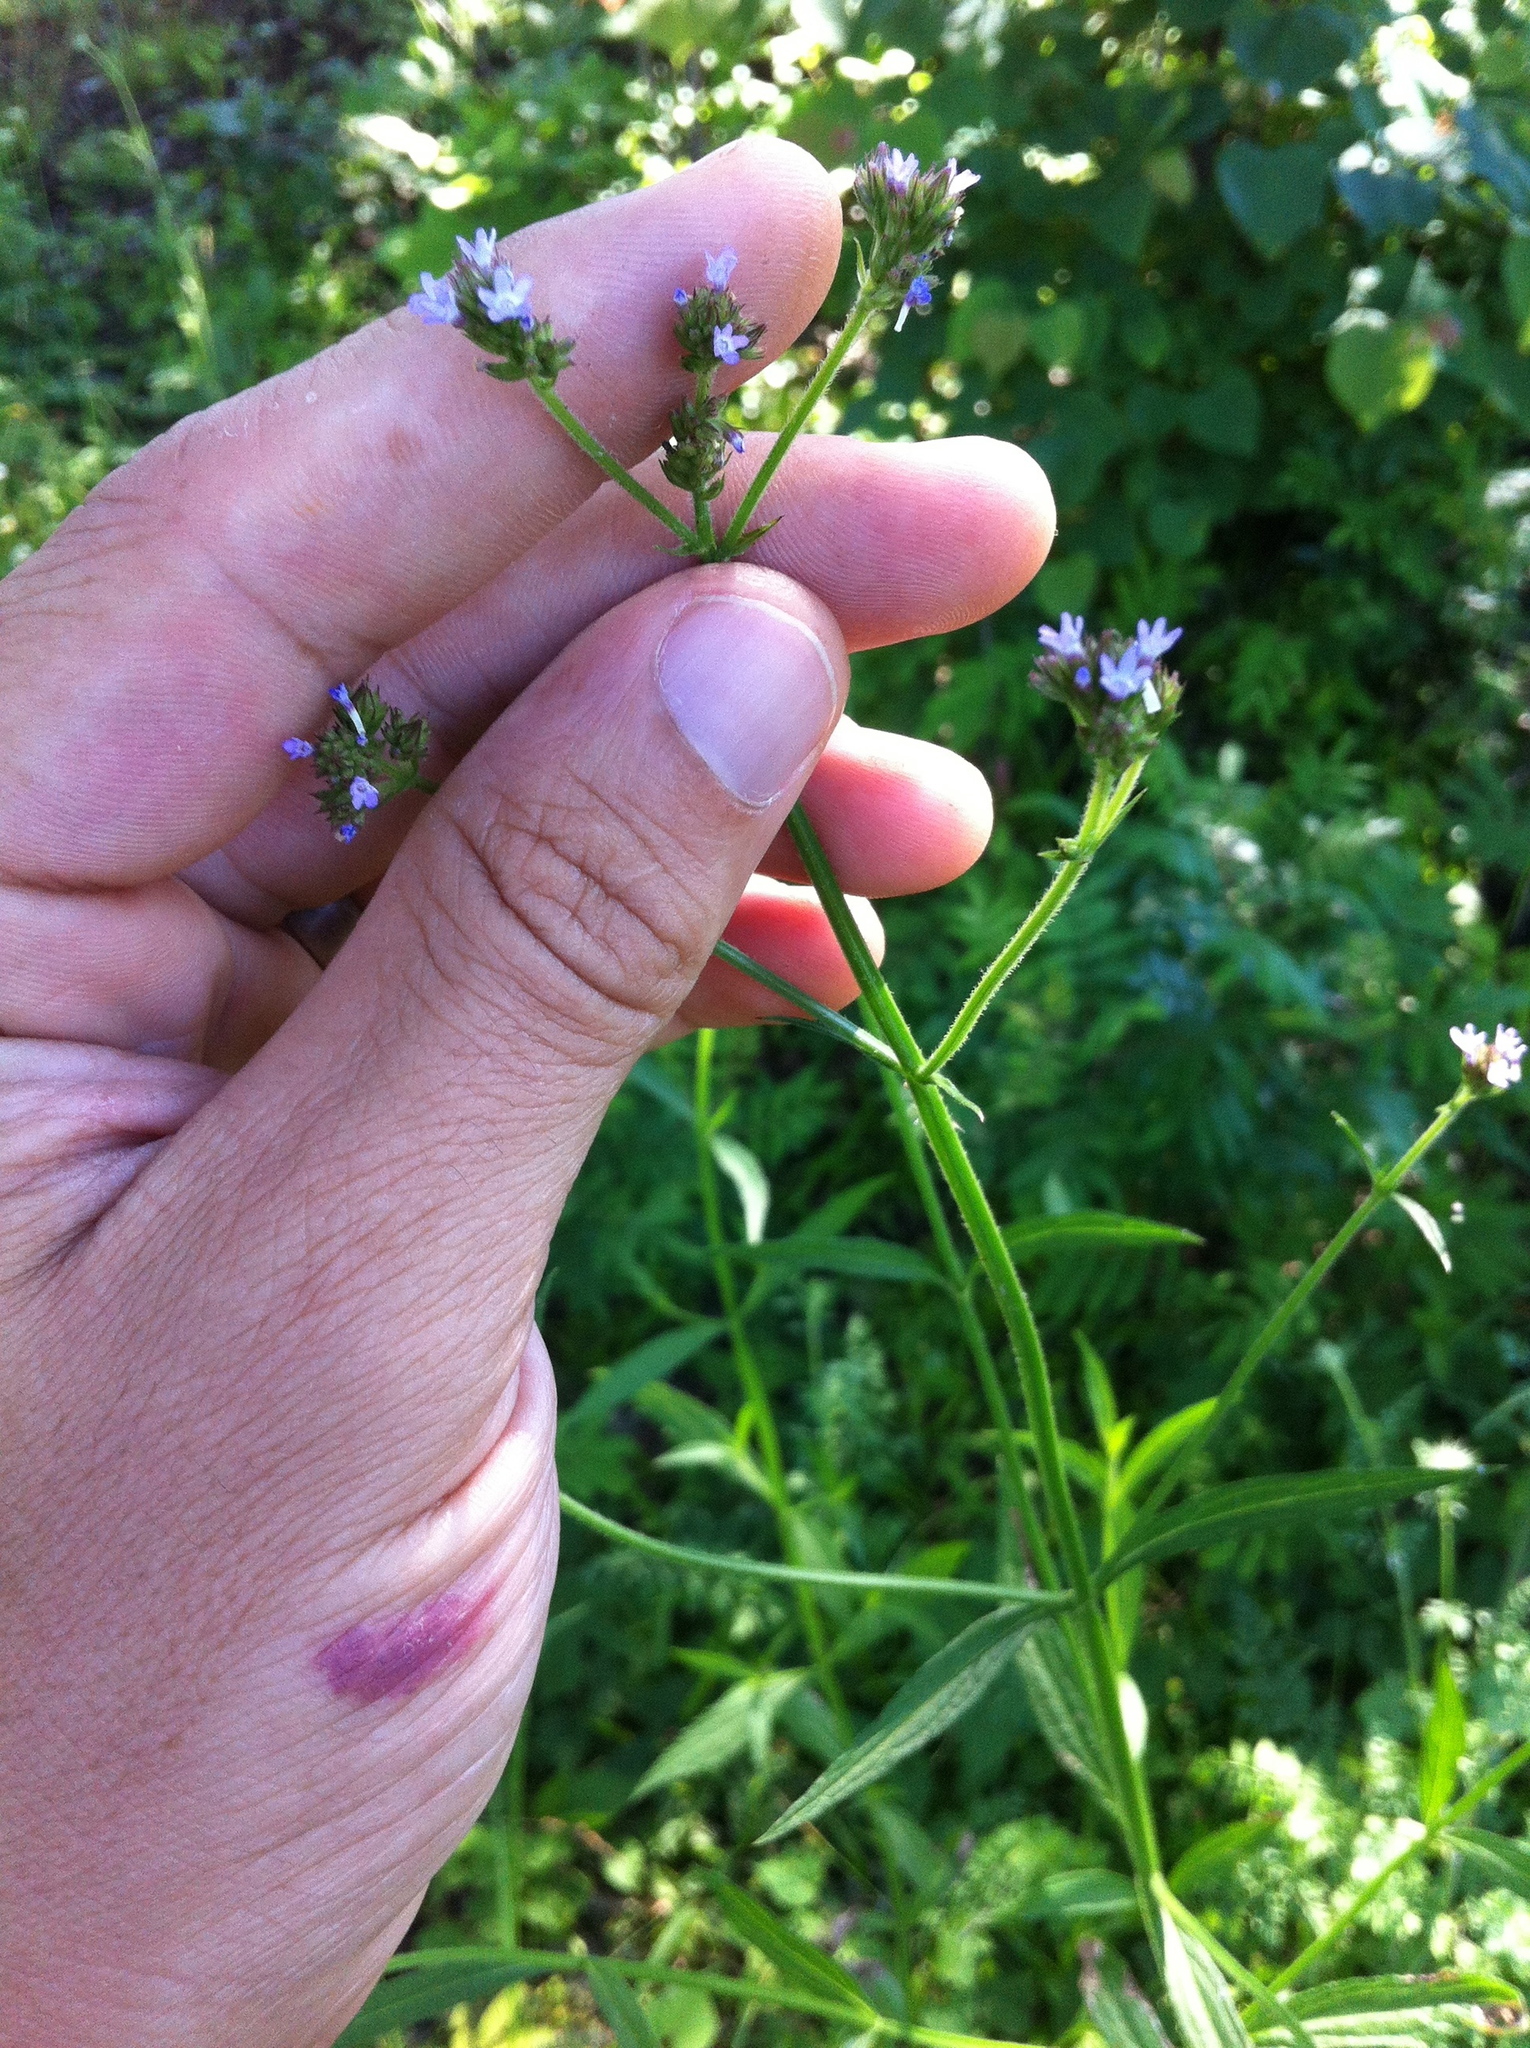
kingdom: Plantae
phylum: Tracheophyta
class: Magnoliopsida
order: Lamiales
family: Verbenaceae
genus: Verbena
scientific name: Verbena brasiliensis
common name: Brazilian vervain
